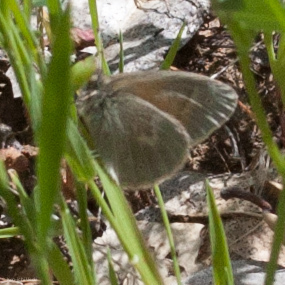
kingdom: Animalia
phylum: Arthropoda
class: Insecta
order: Lepidoptera
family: Nymphalidae
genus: Coenonympha
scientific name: Coenonympha california
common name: Common ringlet
